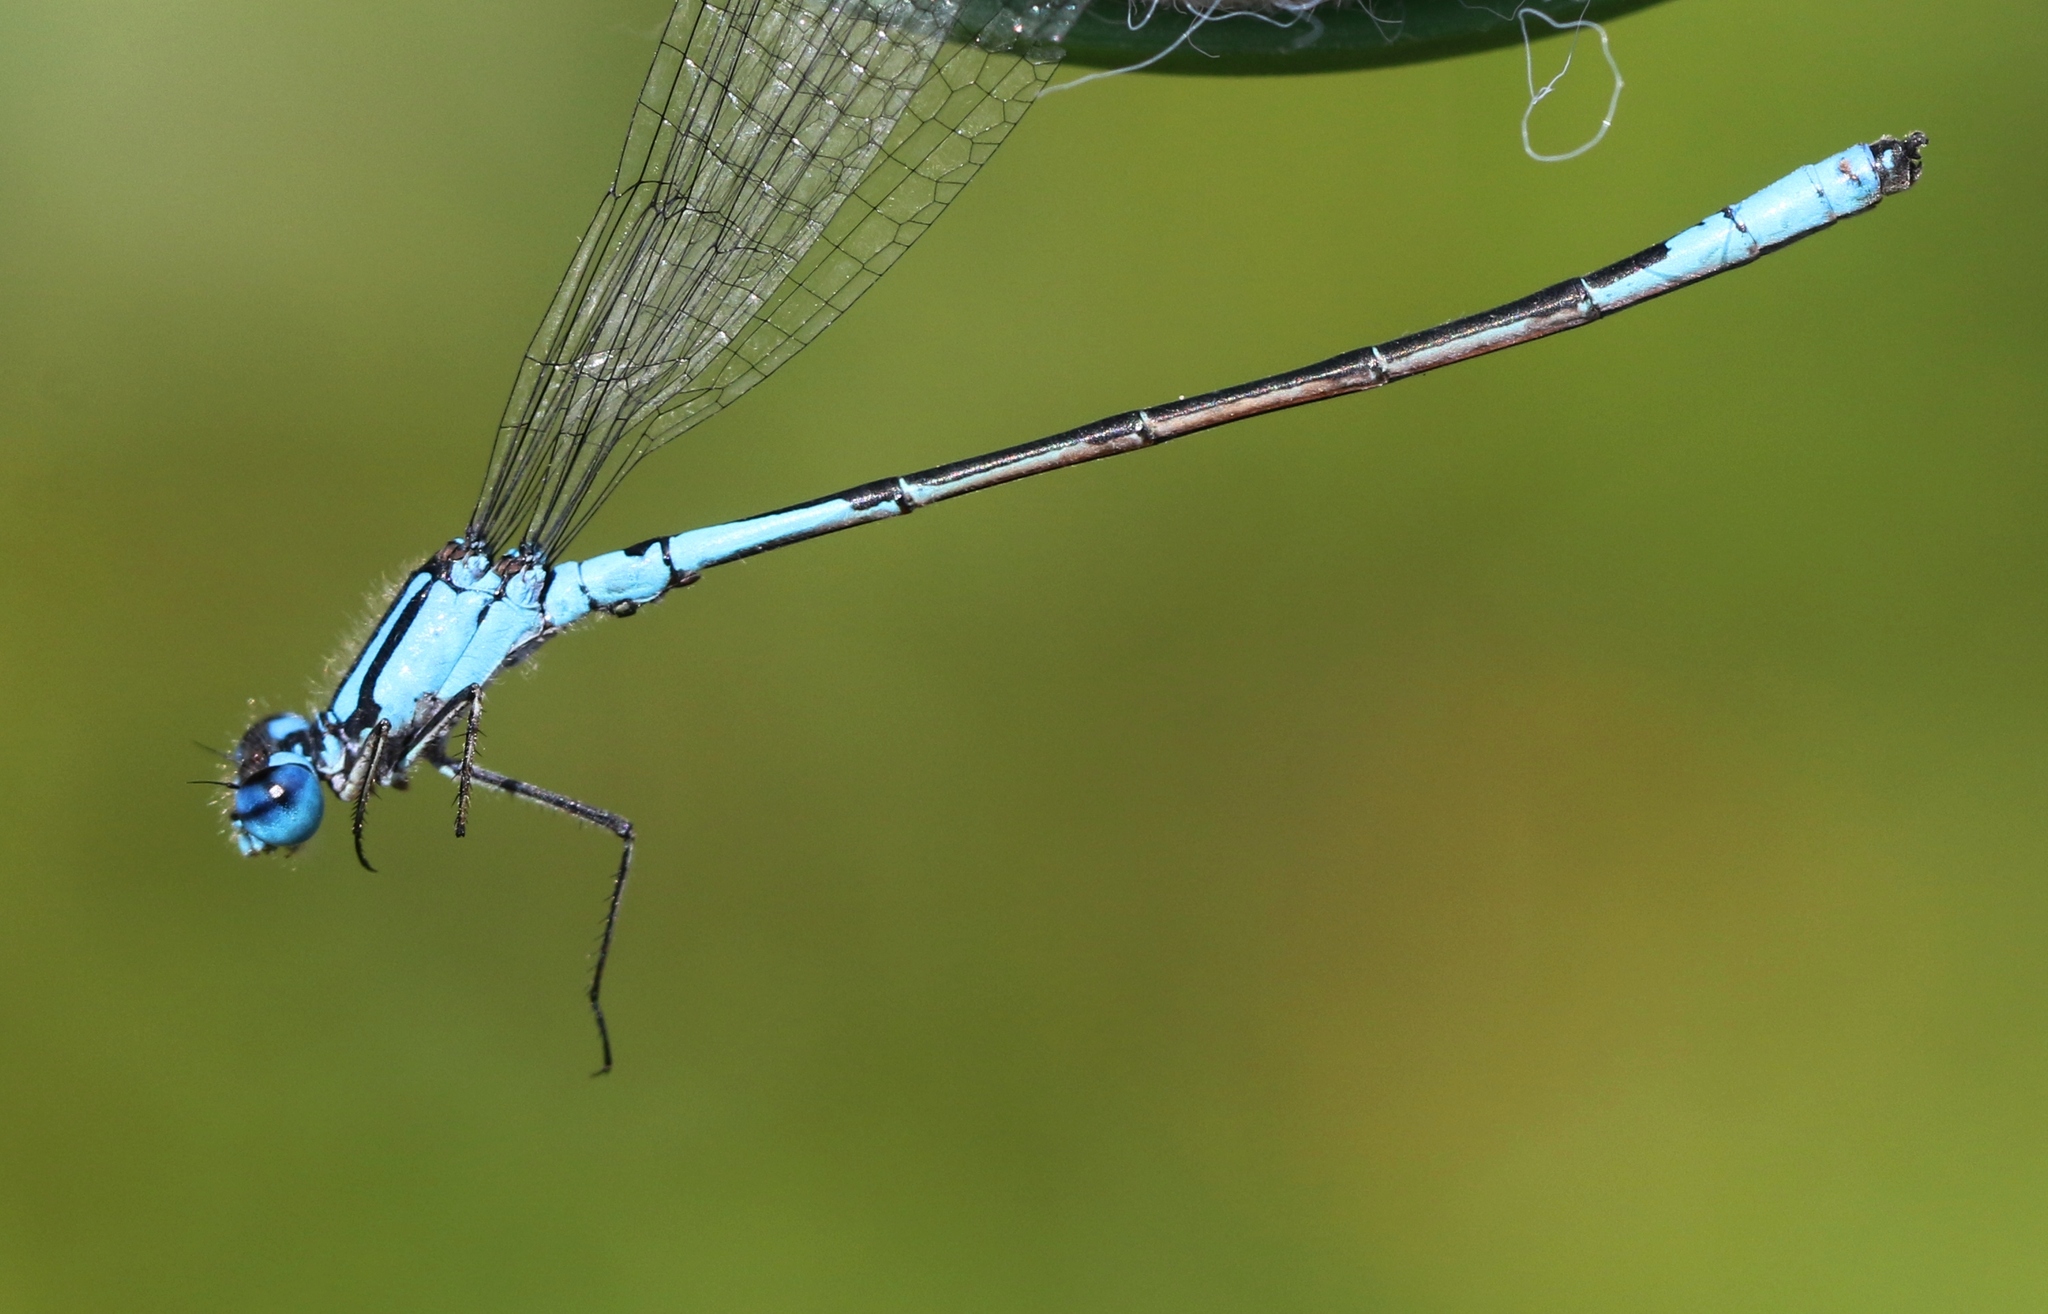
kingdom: Animalia
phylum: Arthropoda
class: Insecta
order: Odonata
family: Coenagrionidae
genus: Enallagma
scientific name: Enallagma aspersum
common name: Azure bluet
